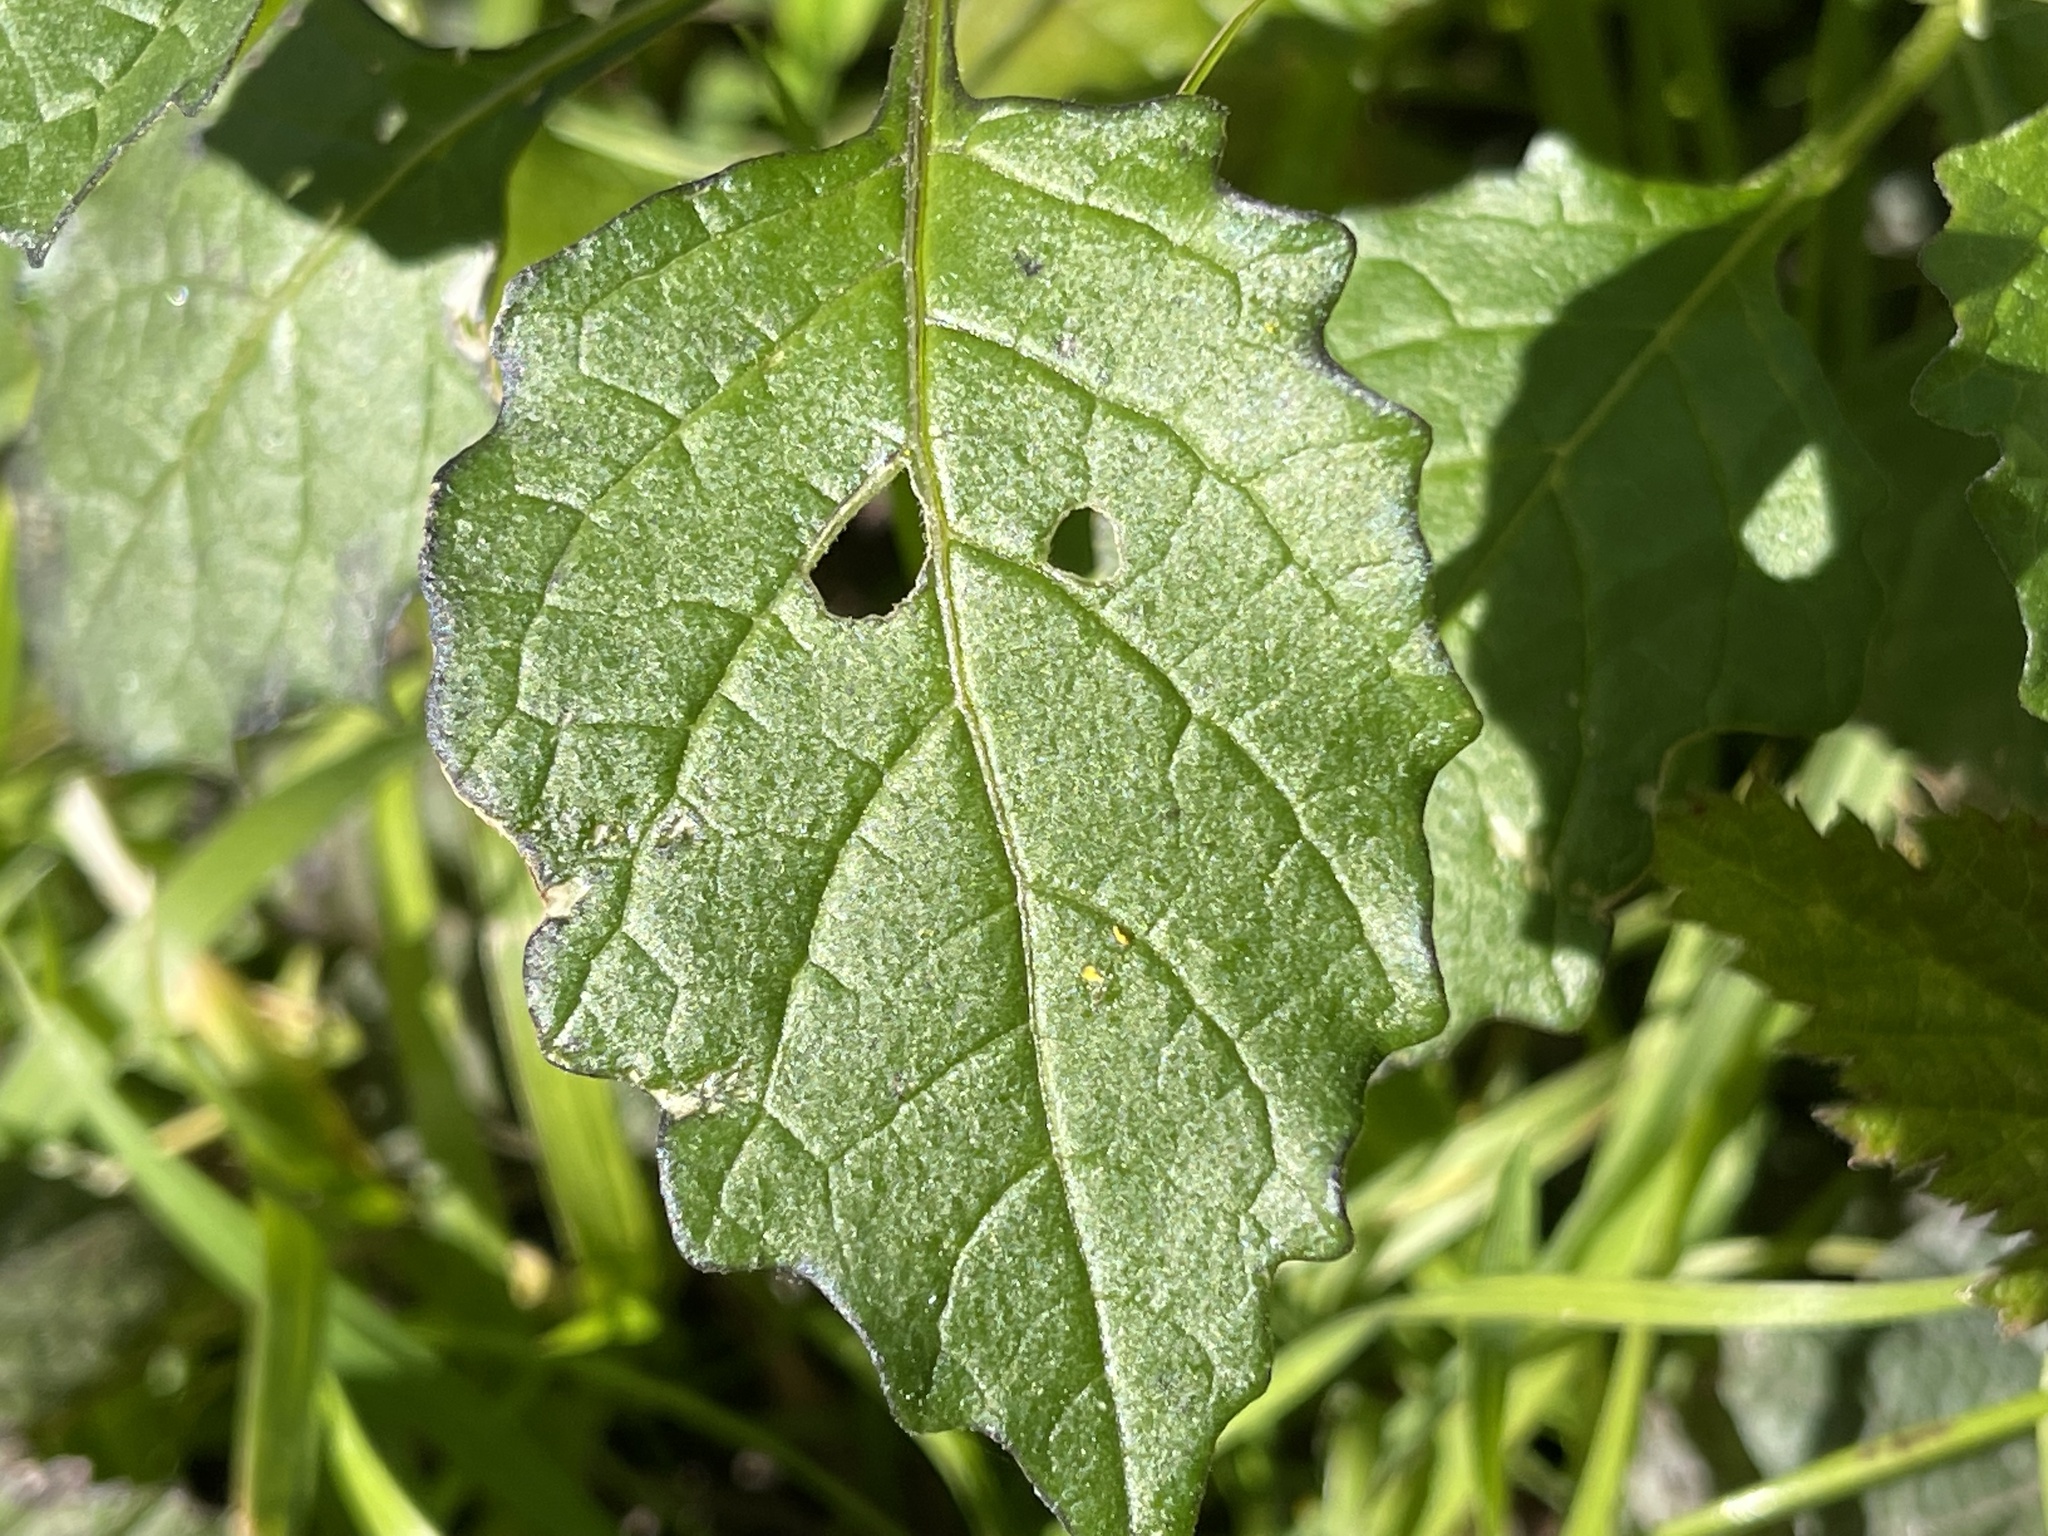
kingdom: Plantae
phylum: Tracheophyta
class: Magnoliopsida
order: Solanales
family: Solanaceae
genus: Solanum
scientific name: Solanum douglasii
